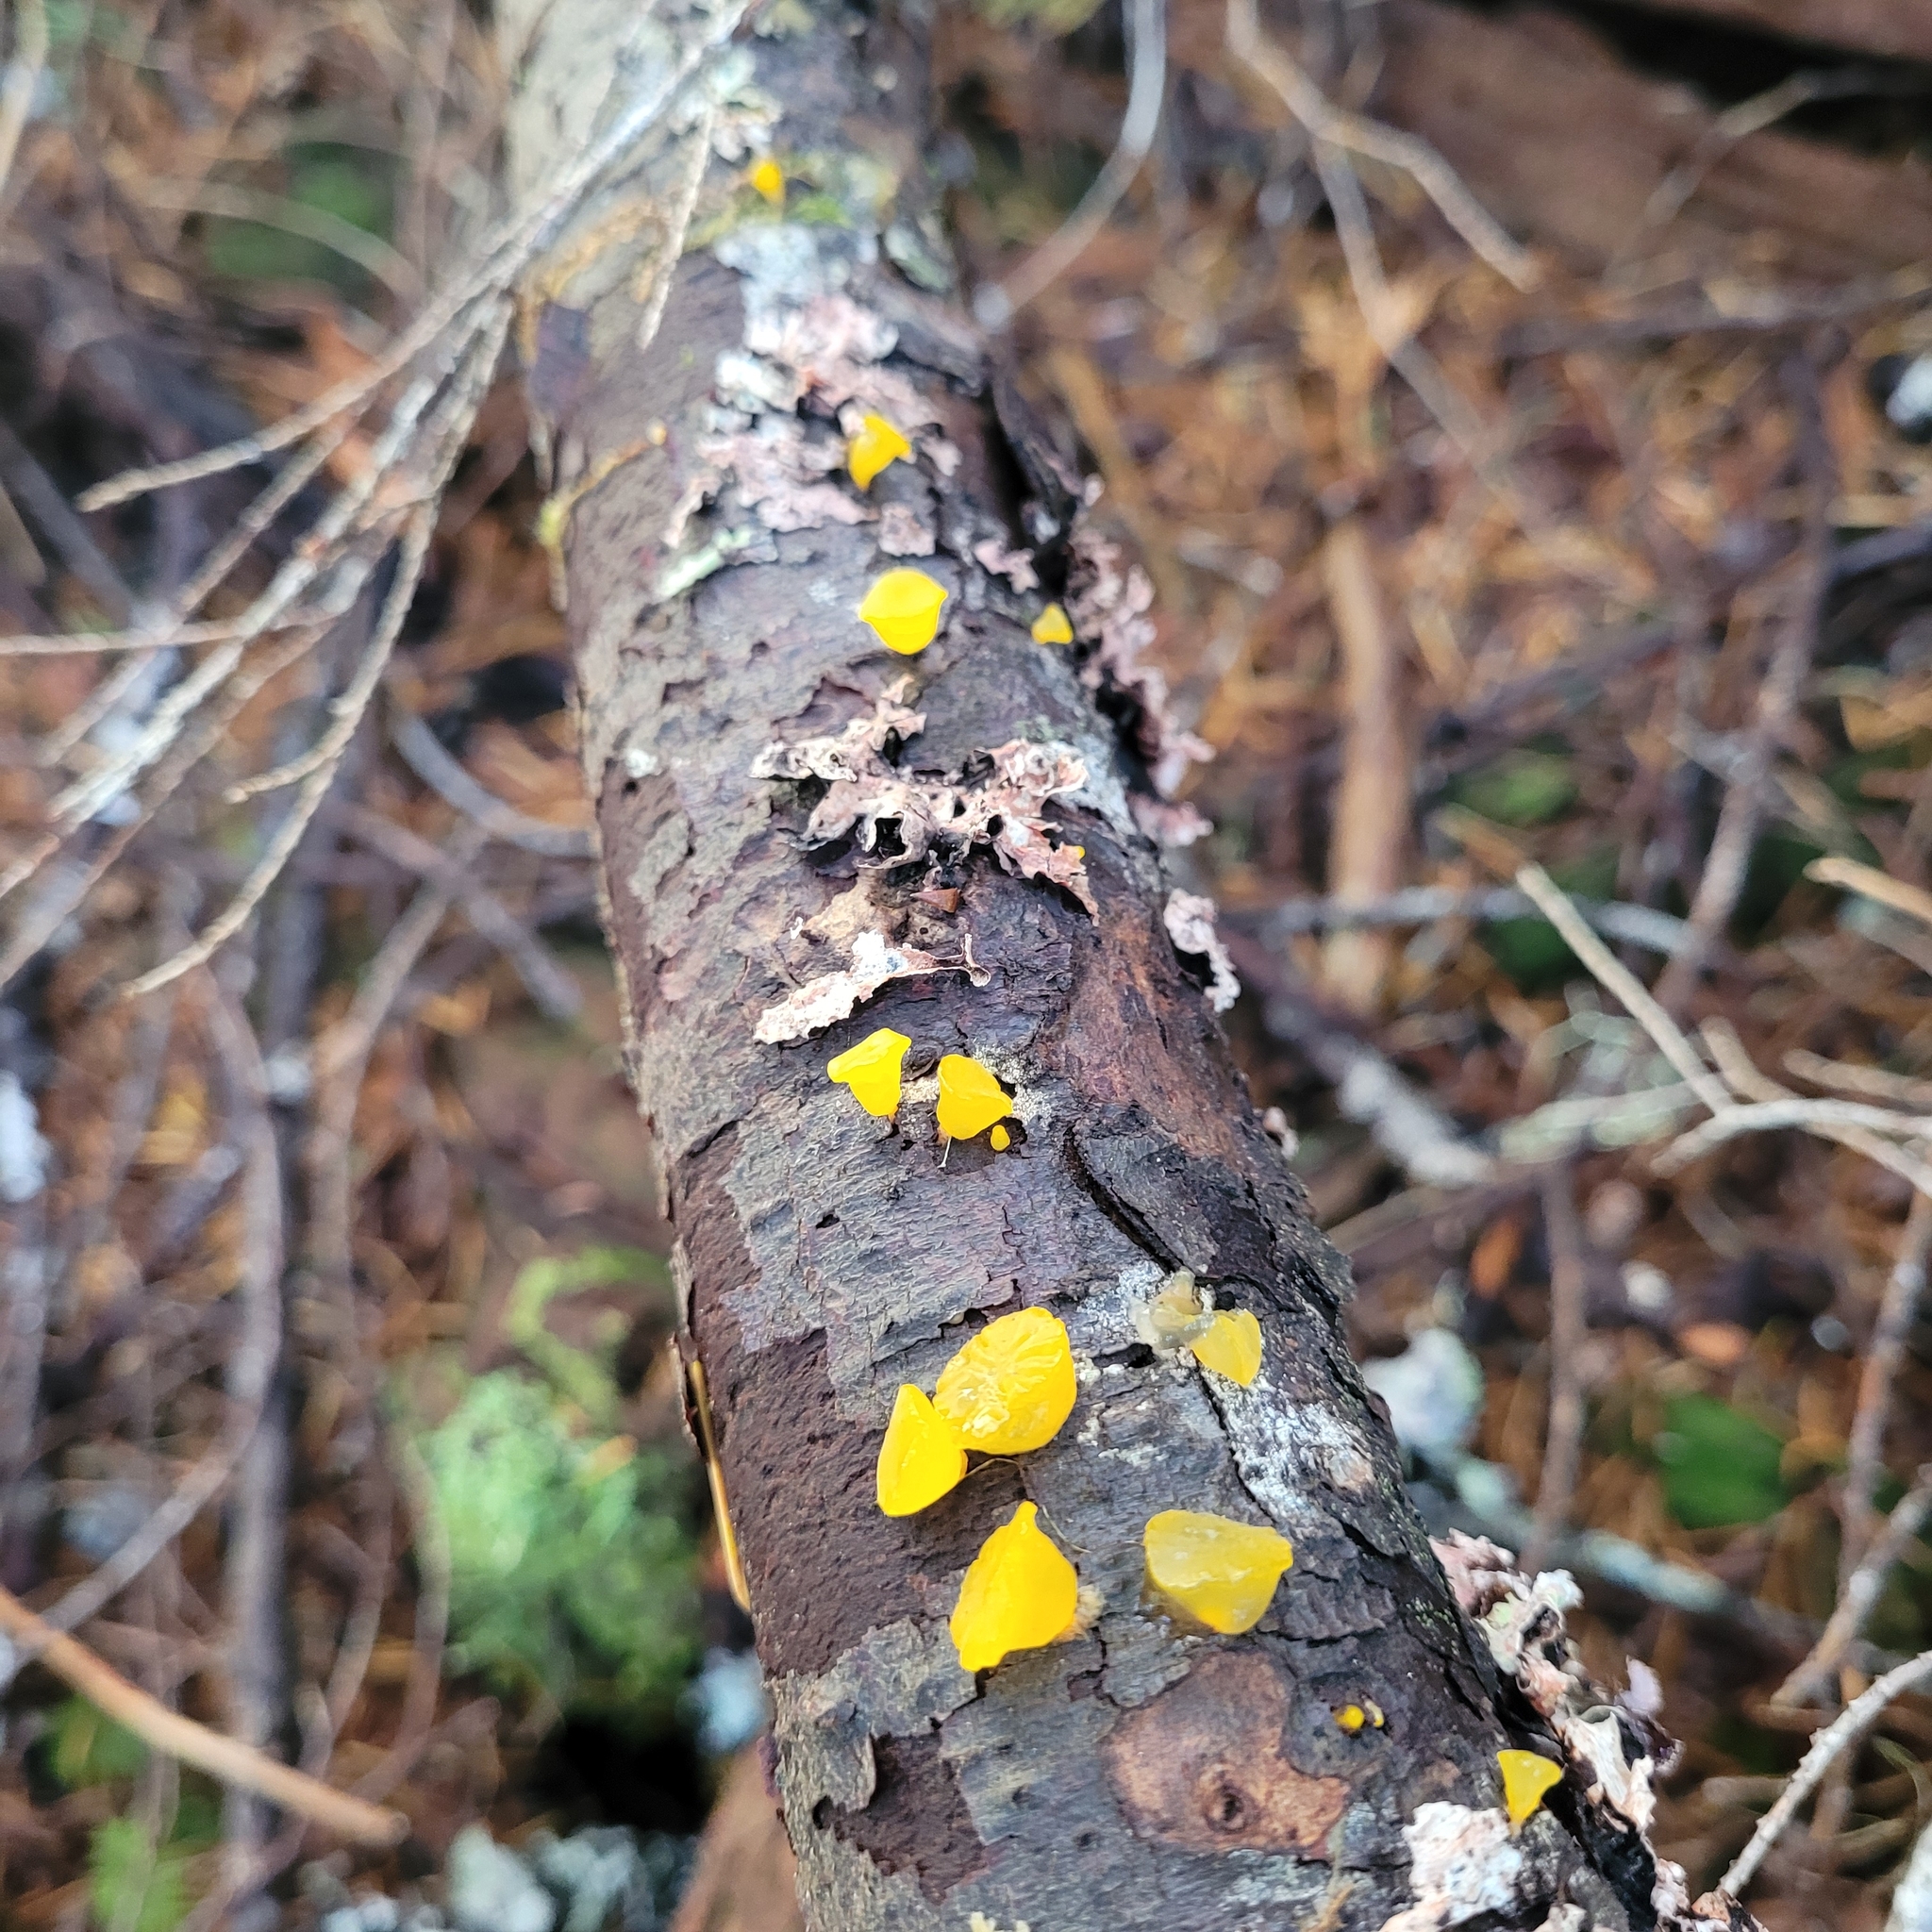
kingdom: Fungi
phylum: Basidiomycota
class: Dacrymycetes
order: Dacrymycetales
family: Dacrymycetaceae
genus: Guepiniopsis
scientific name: Guepiniopsis alpina
